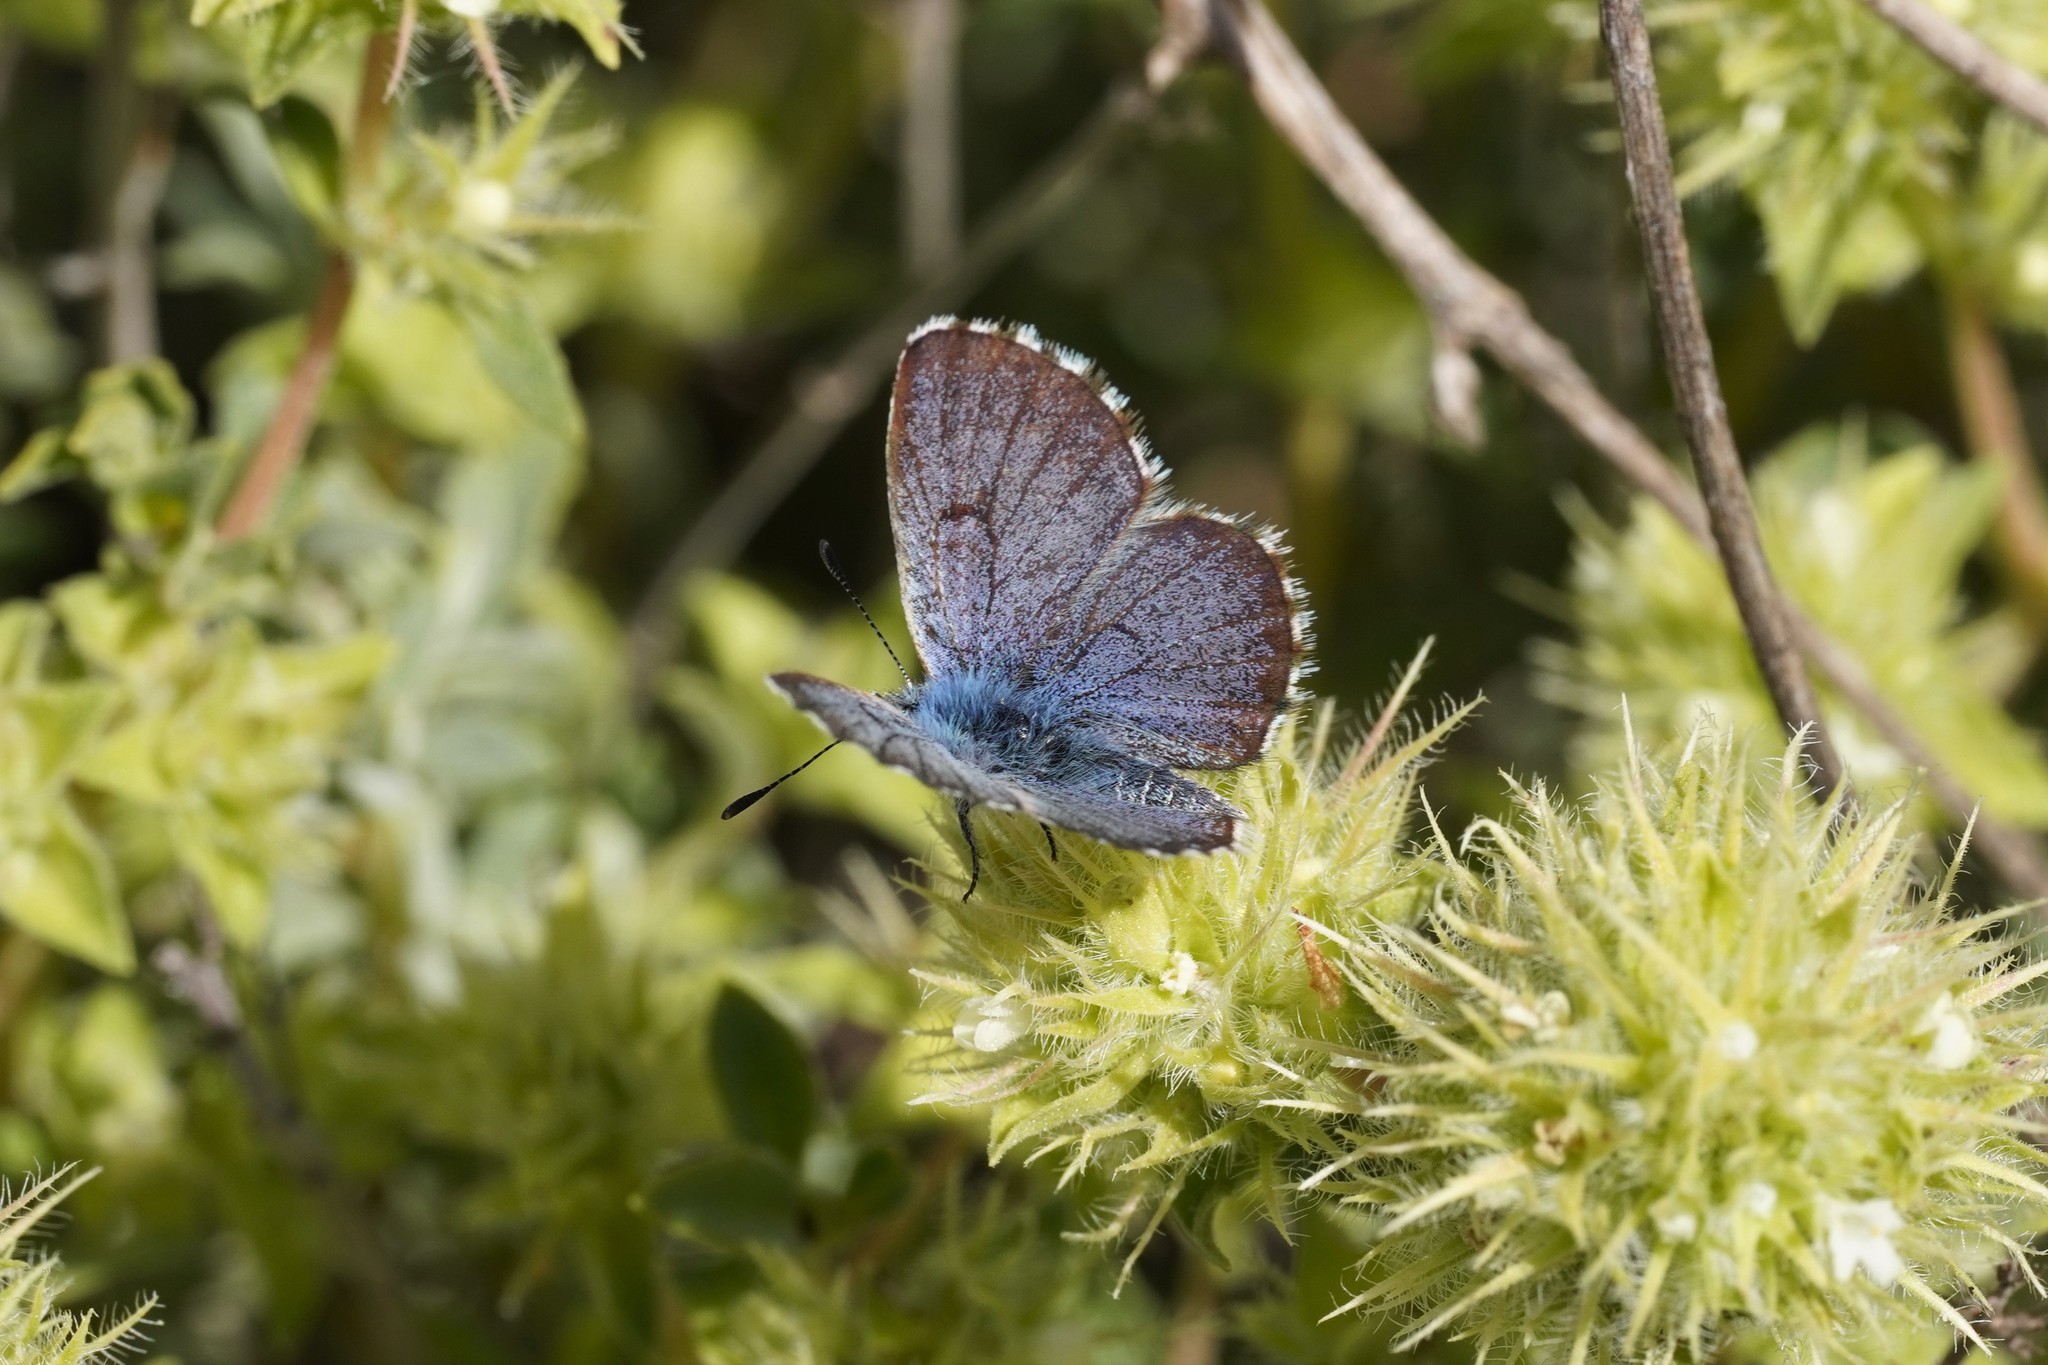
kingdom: Animalia
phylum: Arthropoda
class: Insecta
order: Lepidoptera
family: Lycaenidae
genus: Pseudophilotes
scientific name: Pseudophilotes baton
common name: Baton blue
